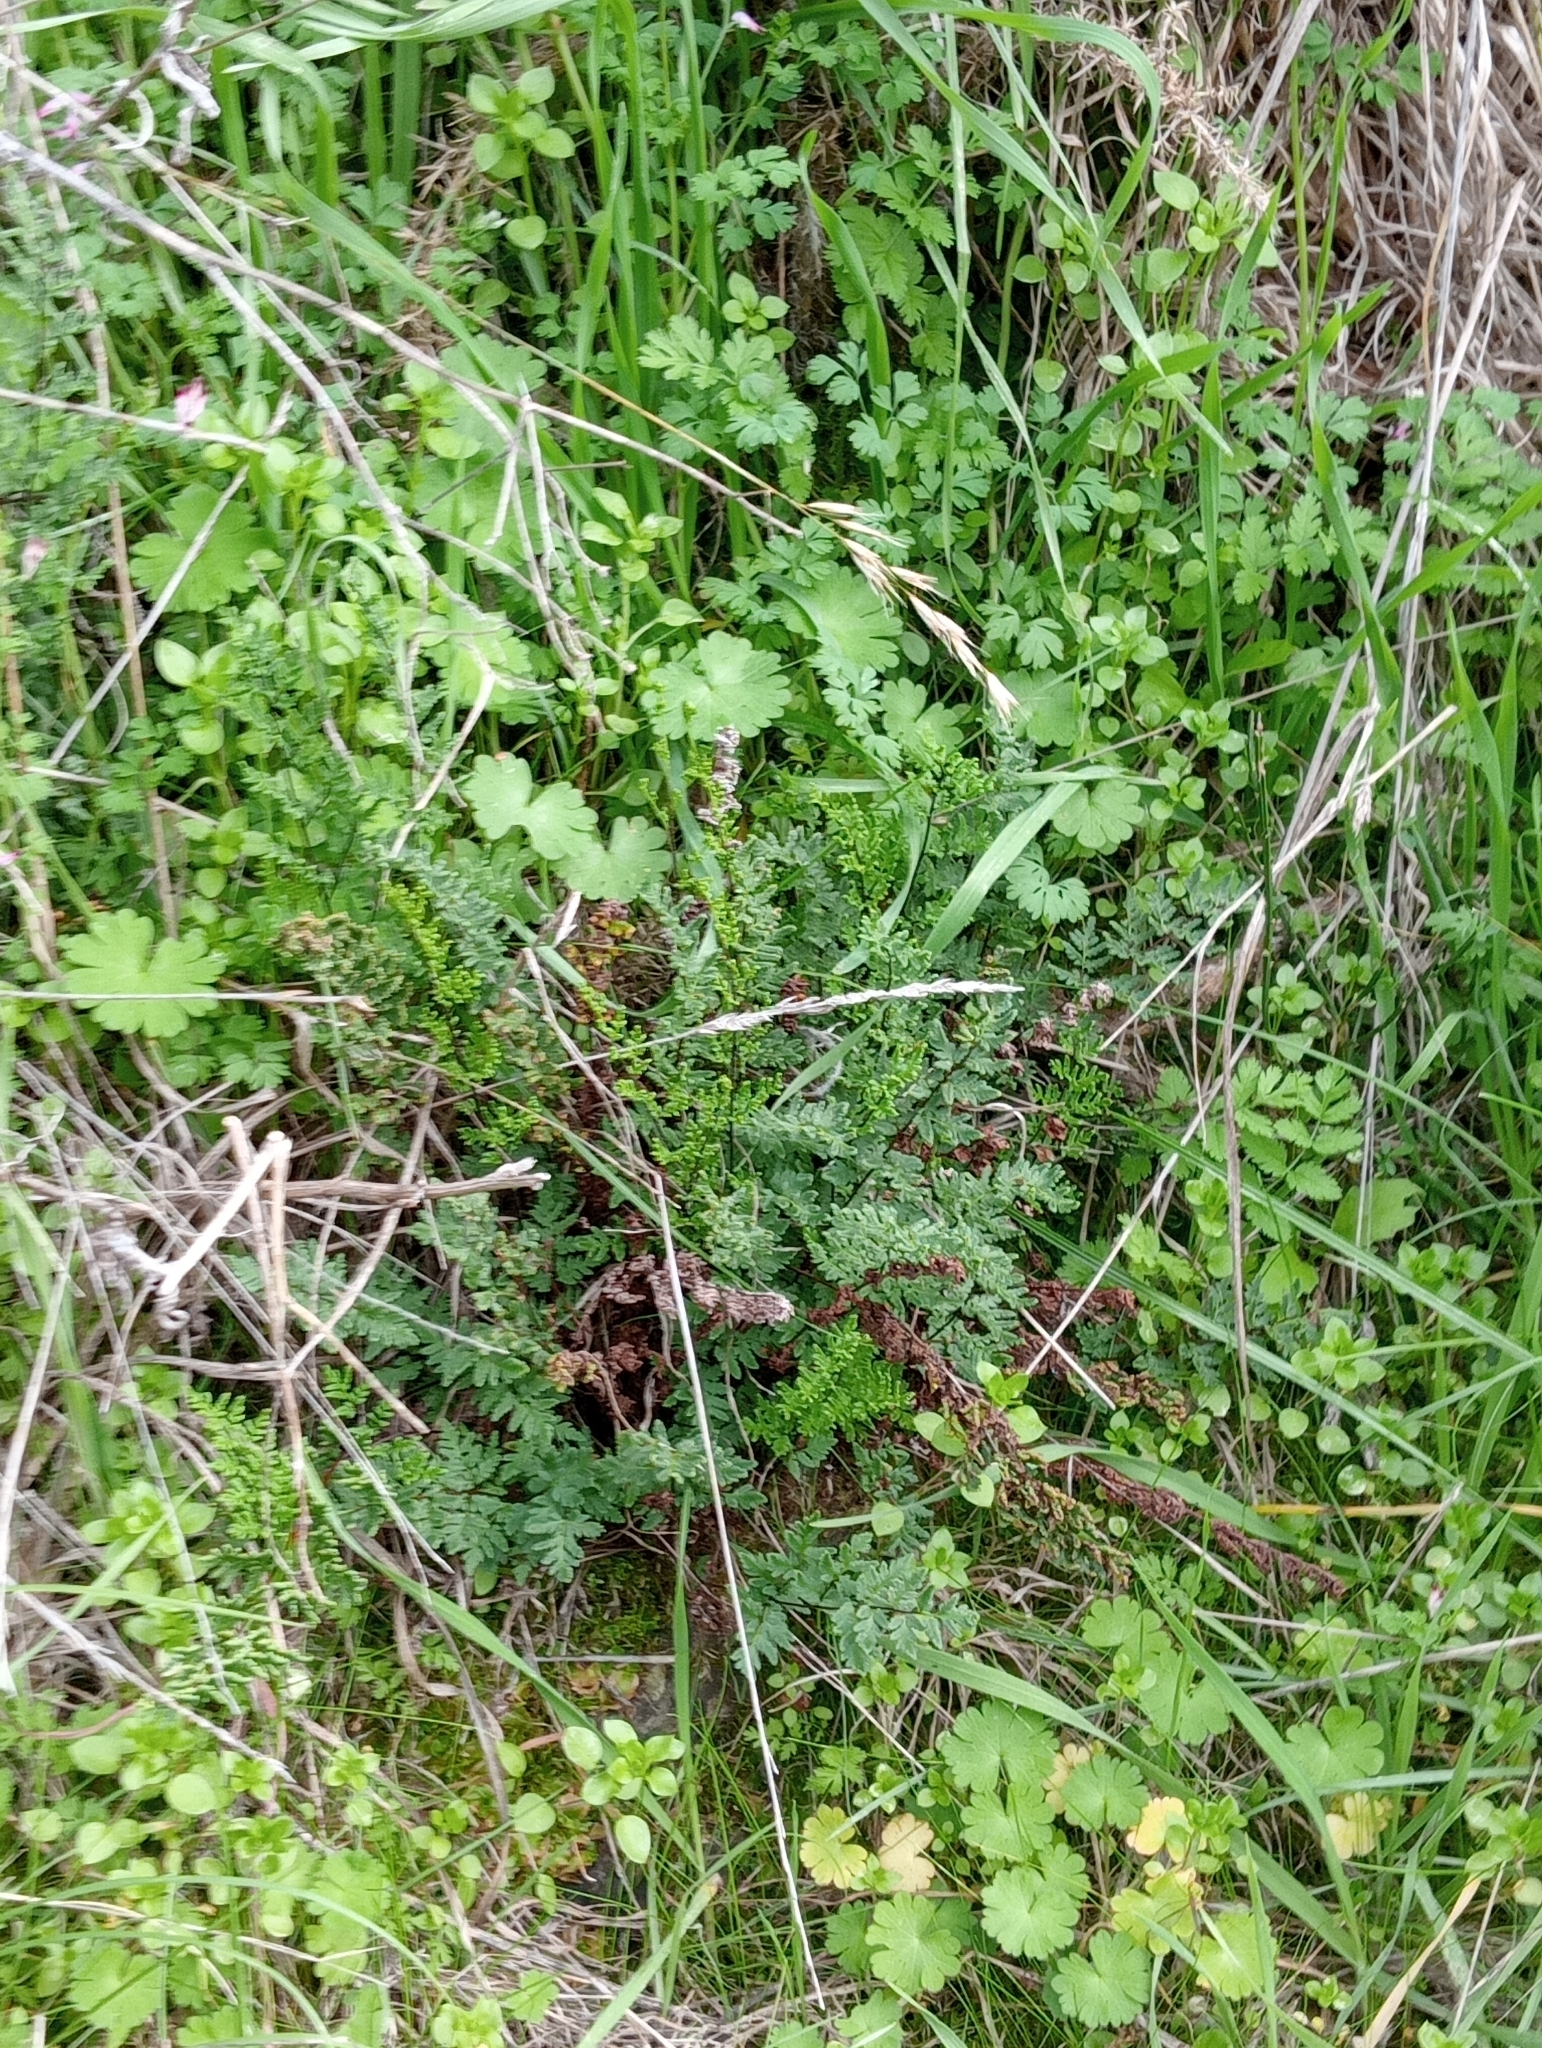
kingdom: Plantae
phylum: Tracheophyta
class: Polypodiopsida
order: Polypodiales
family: Pteridaceae
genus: Cheilanthes
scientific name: Cheilanthes sieberi
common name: Mulga fern
